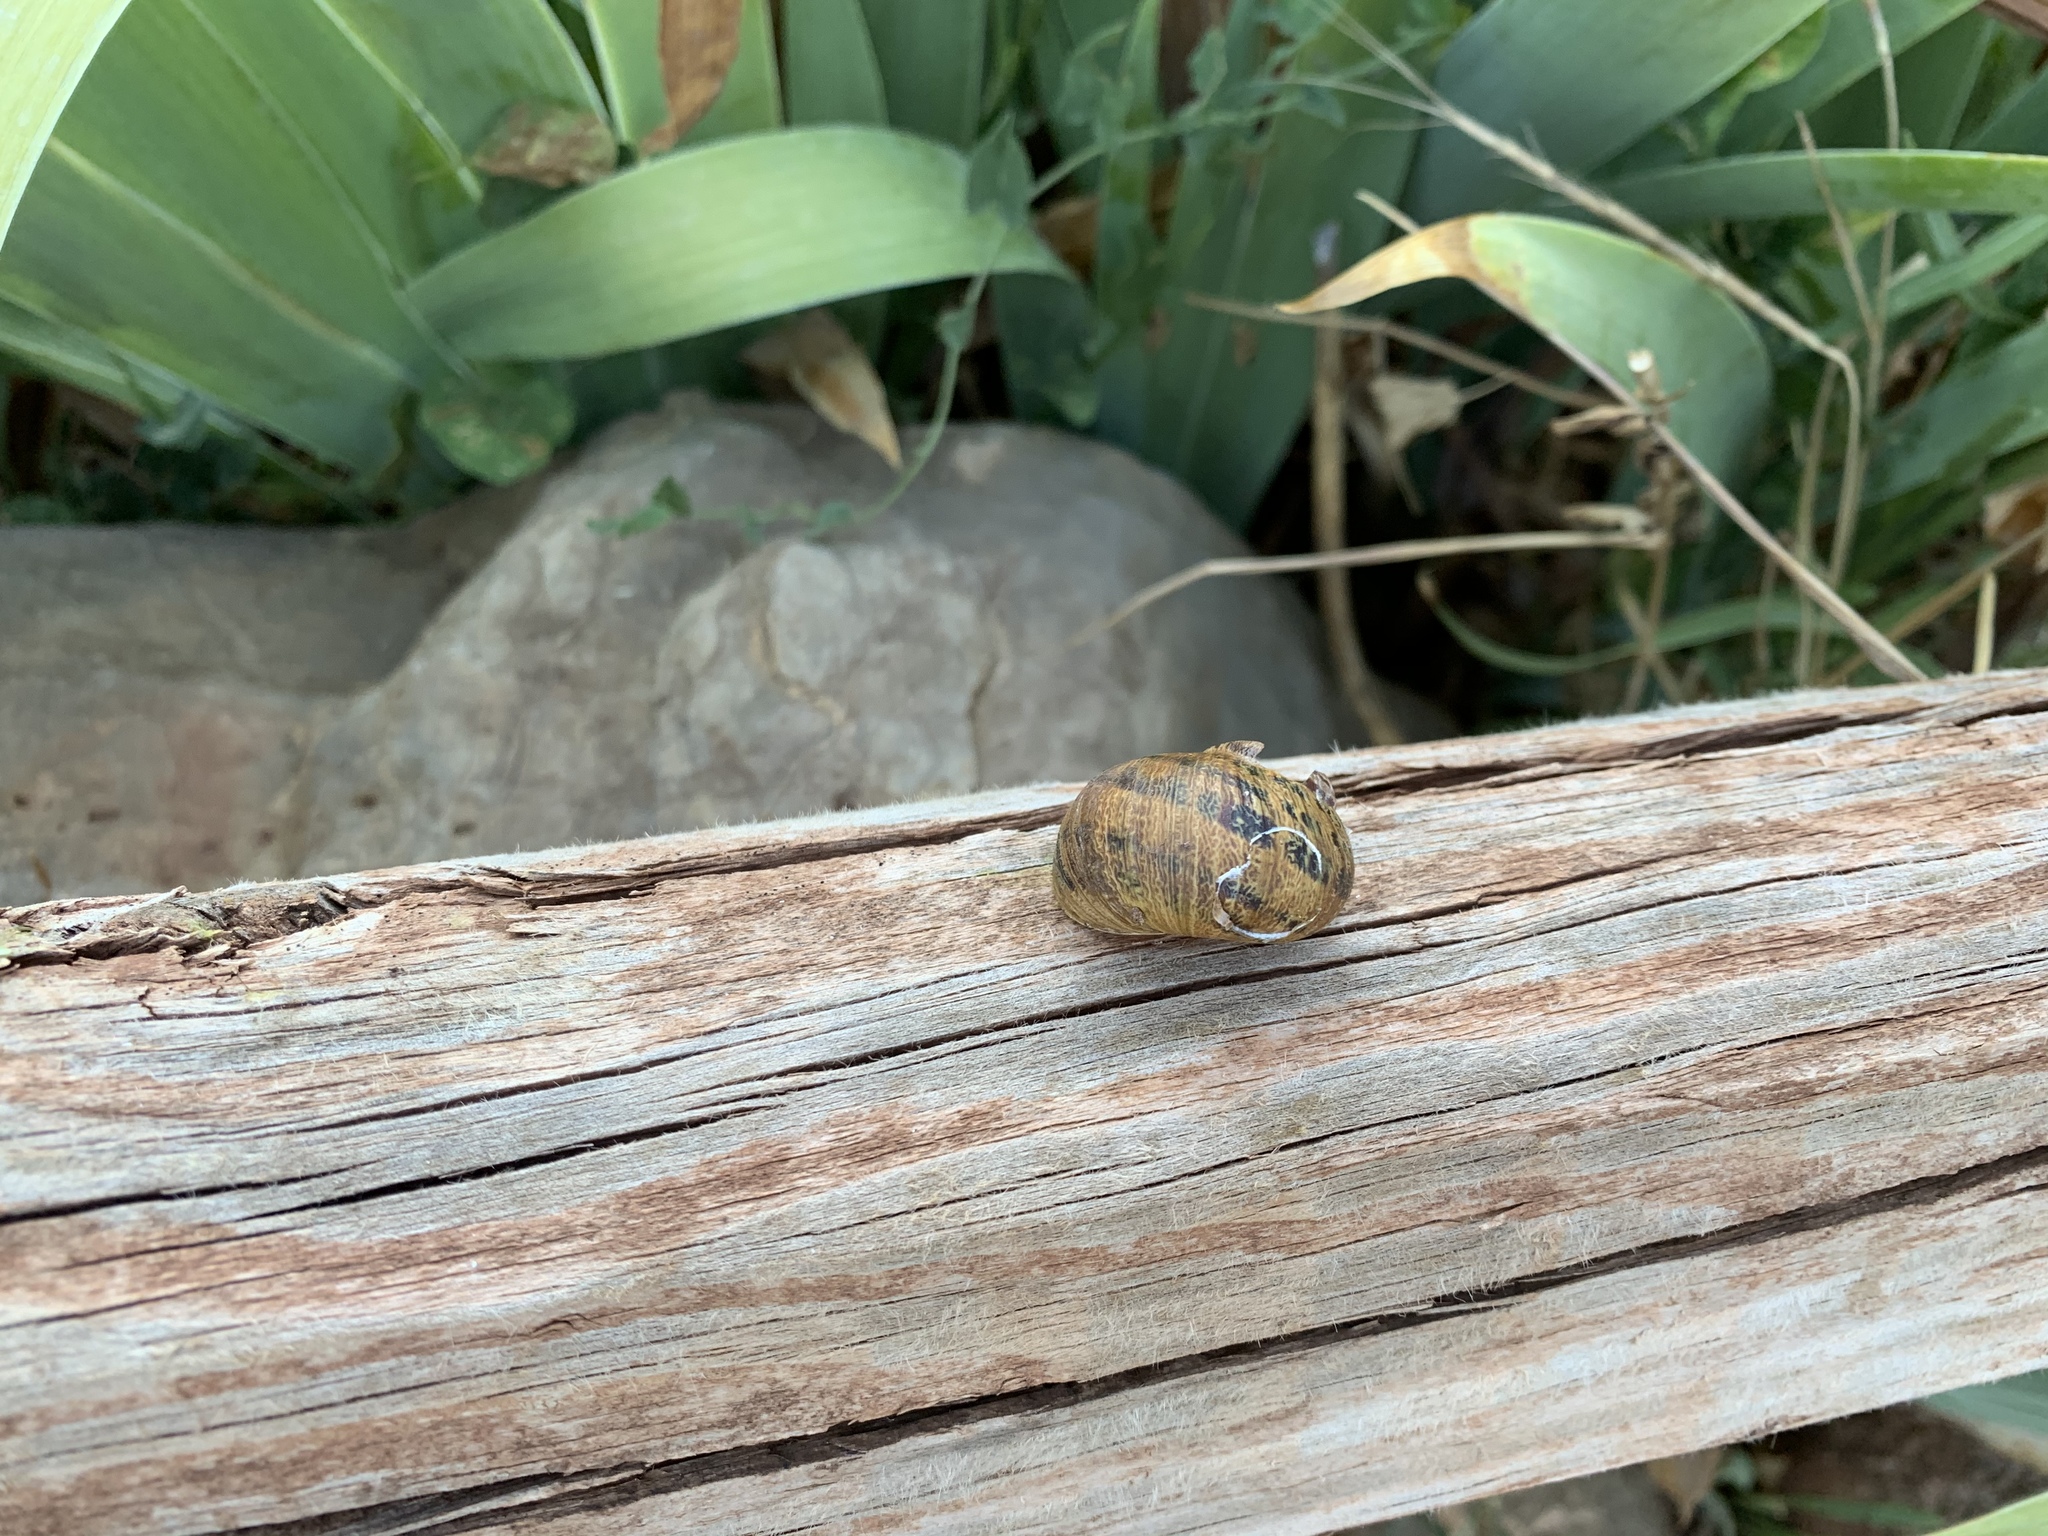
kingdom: Animalia
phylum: Mollusca
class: Gastropoda
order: Stylommatophora
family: Helicidae
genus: Cornu
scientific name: Cornu aspersum
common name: Brown garden snail
